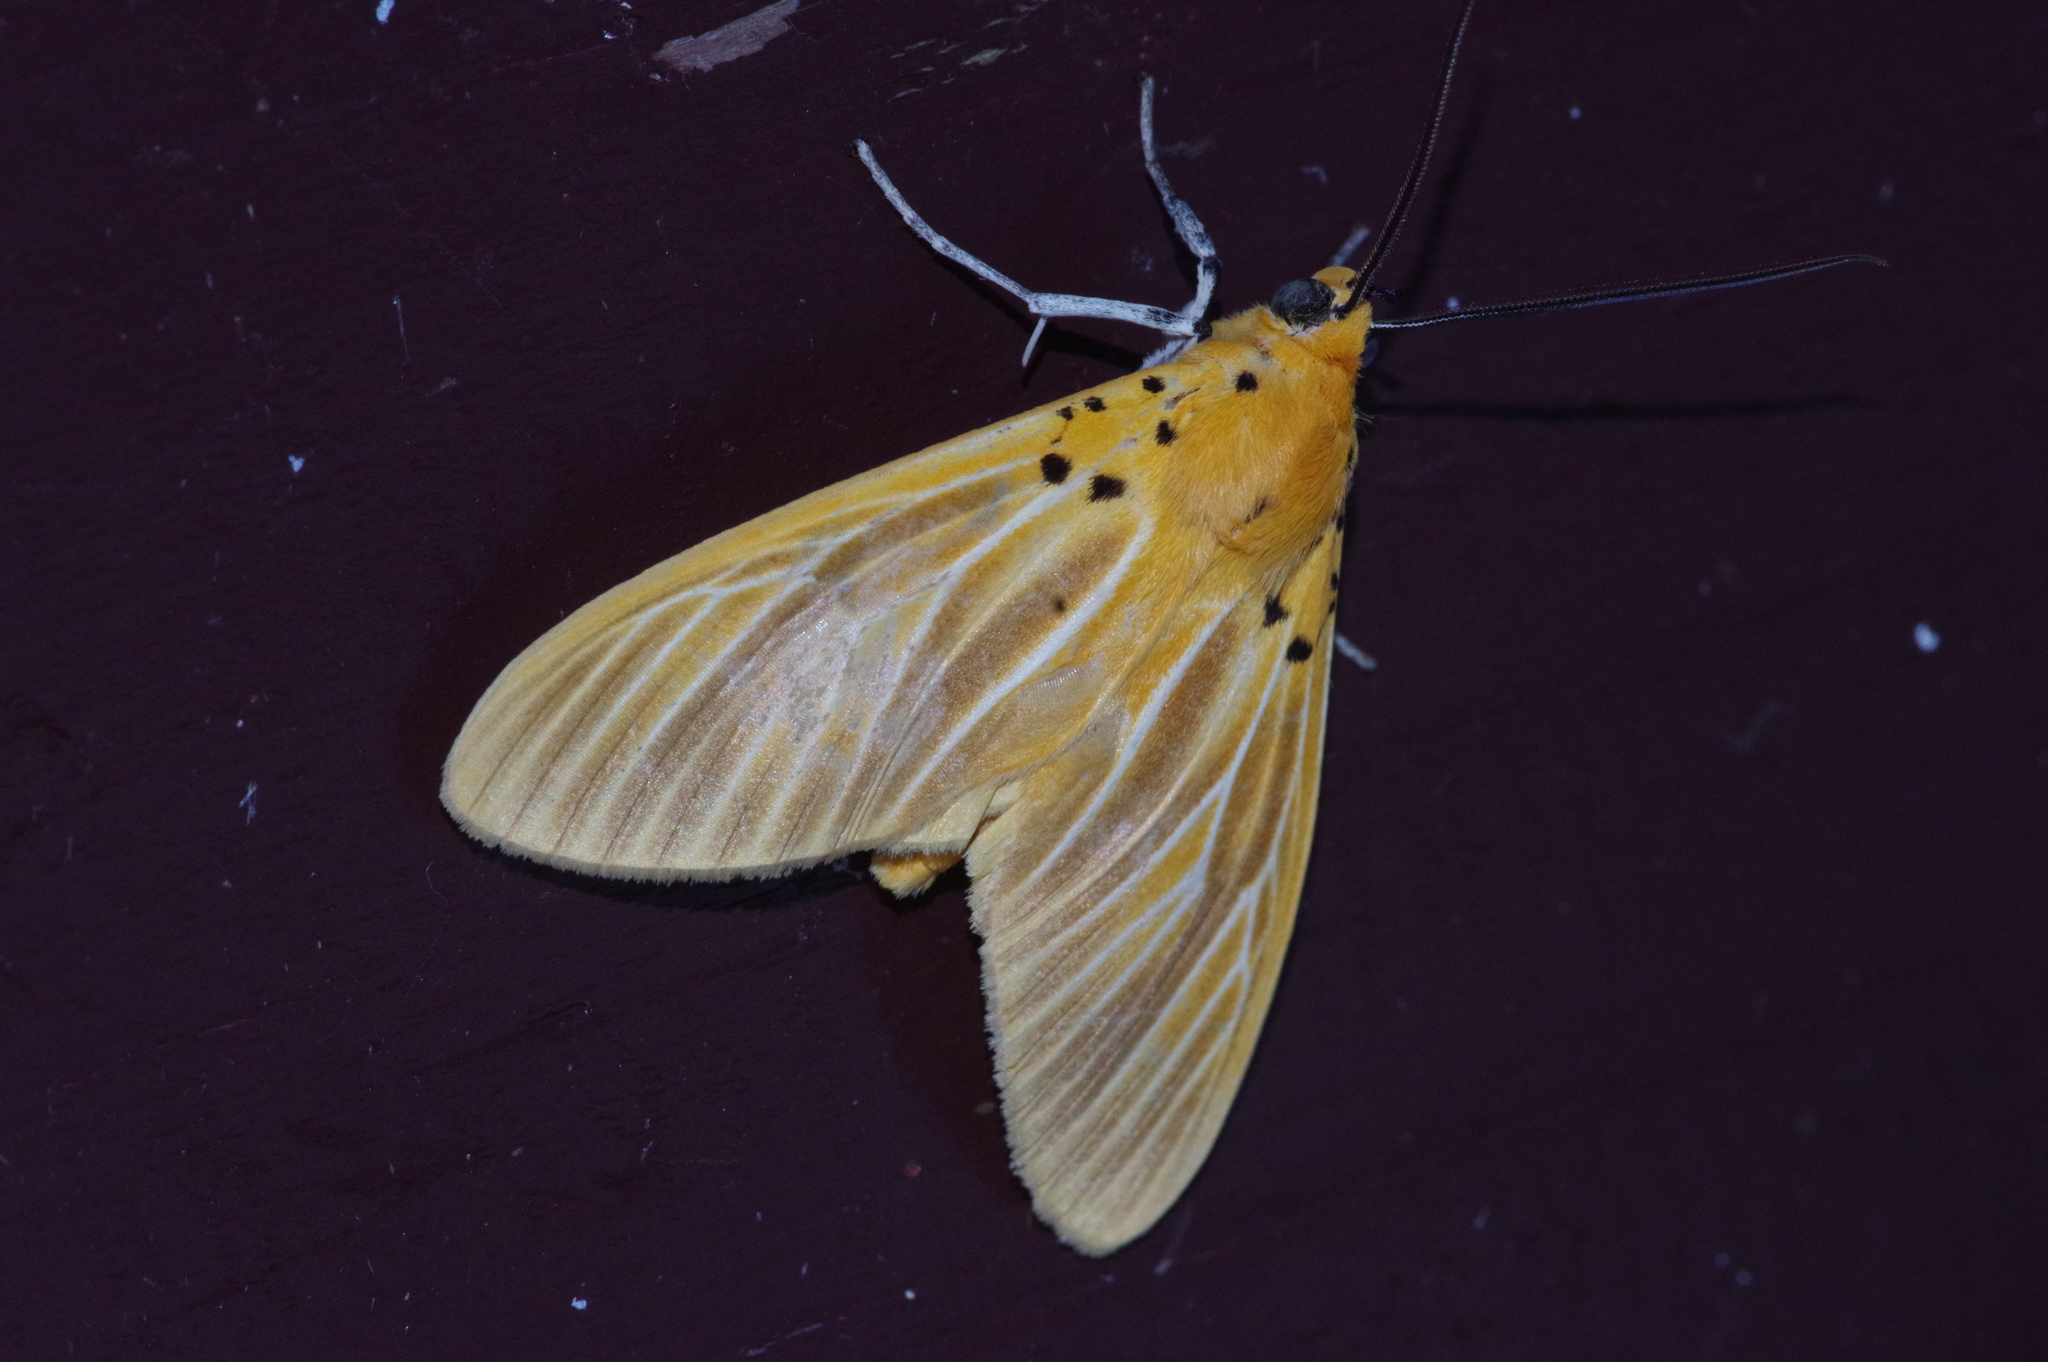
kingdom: Animalia
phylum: Arthropoda
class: Insecta
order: Lepidoptera
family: Erebidae
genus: Asota
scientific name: Asota egens
